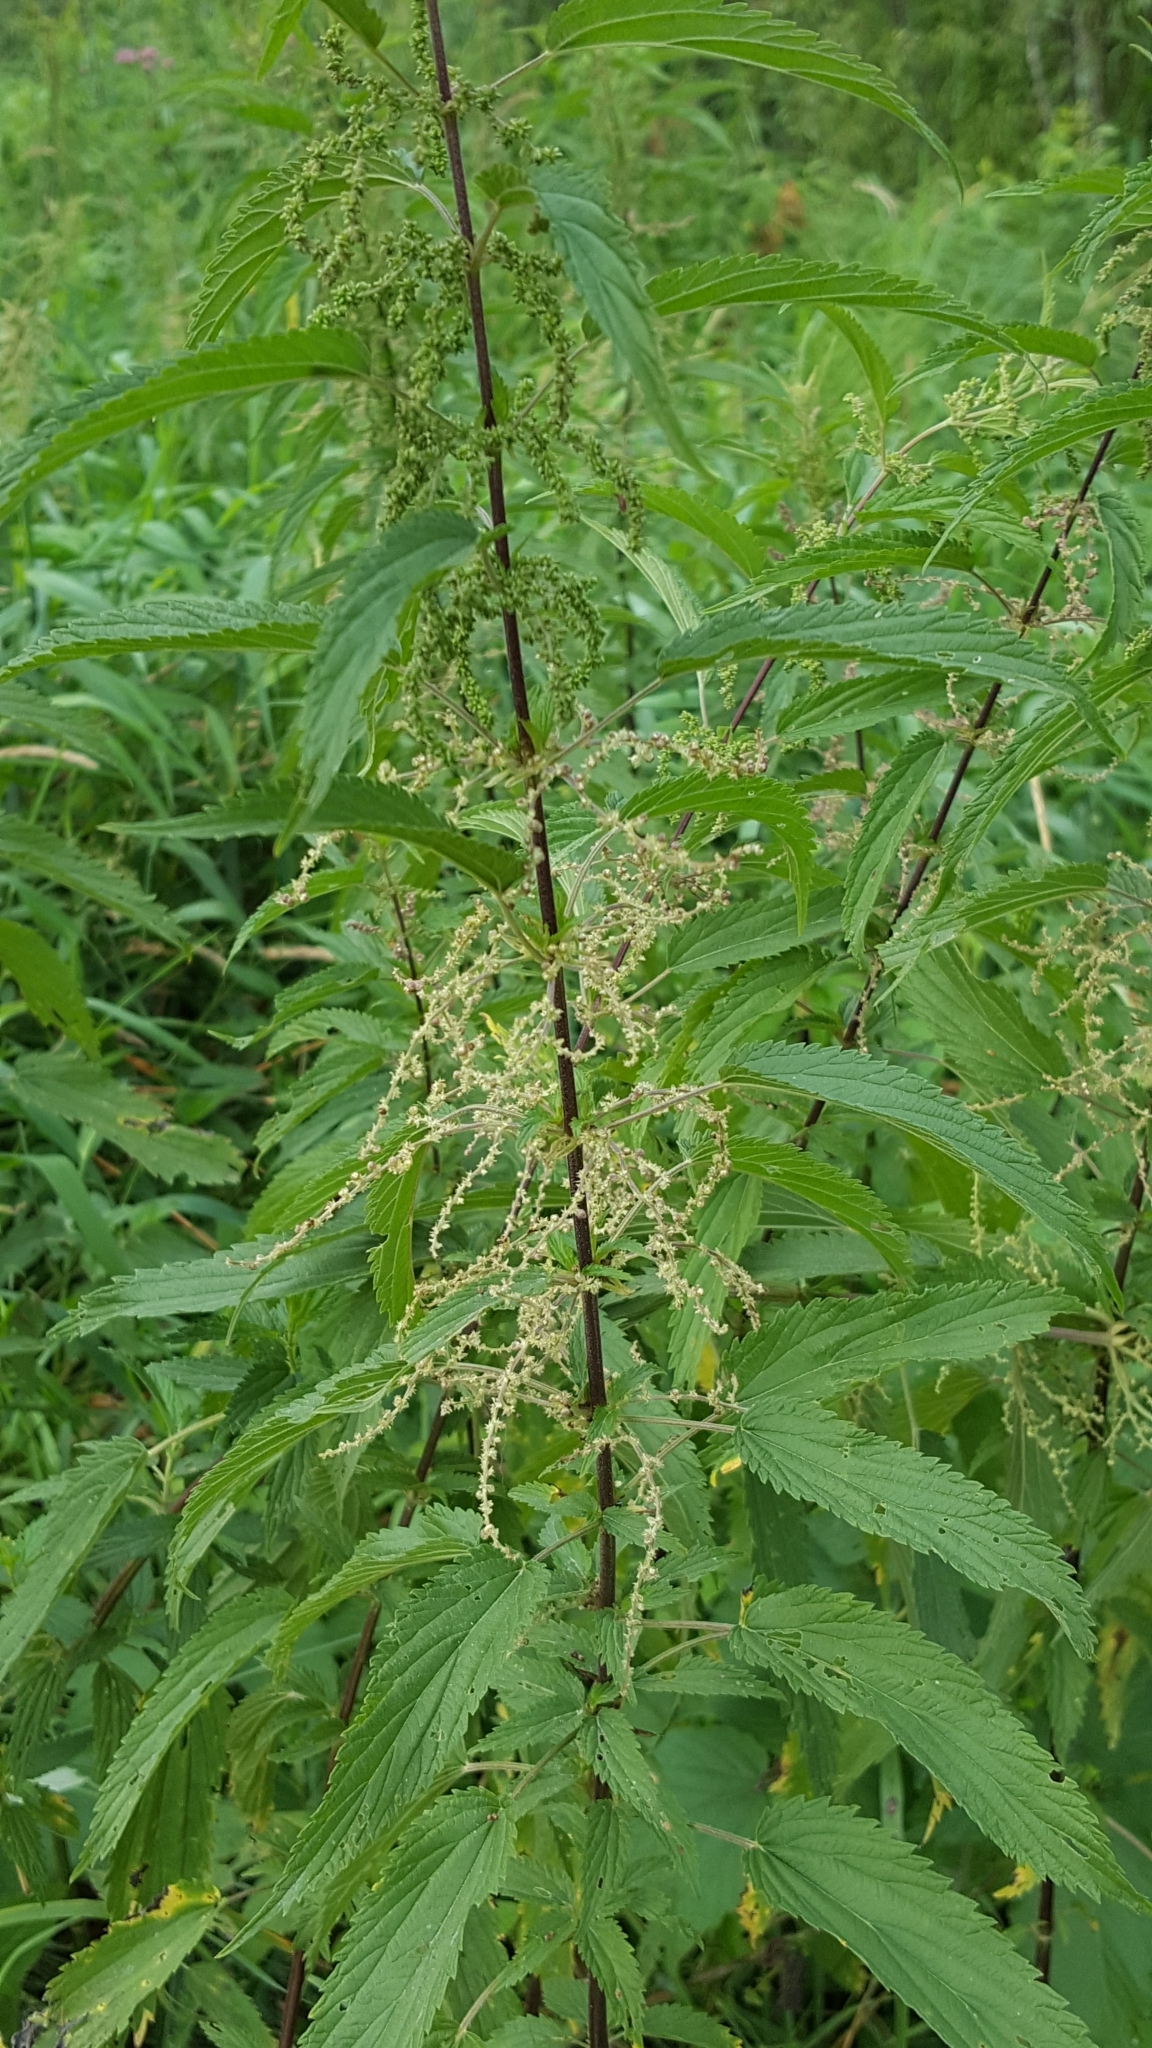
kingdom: Plantae
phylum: Tracheophyta
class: Magnoliopsida
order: Rosales
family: Urticaceae
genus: Urtica
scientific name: Urtica dioica
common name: Common nettle
